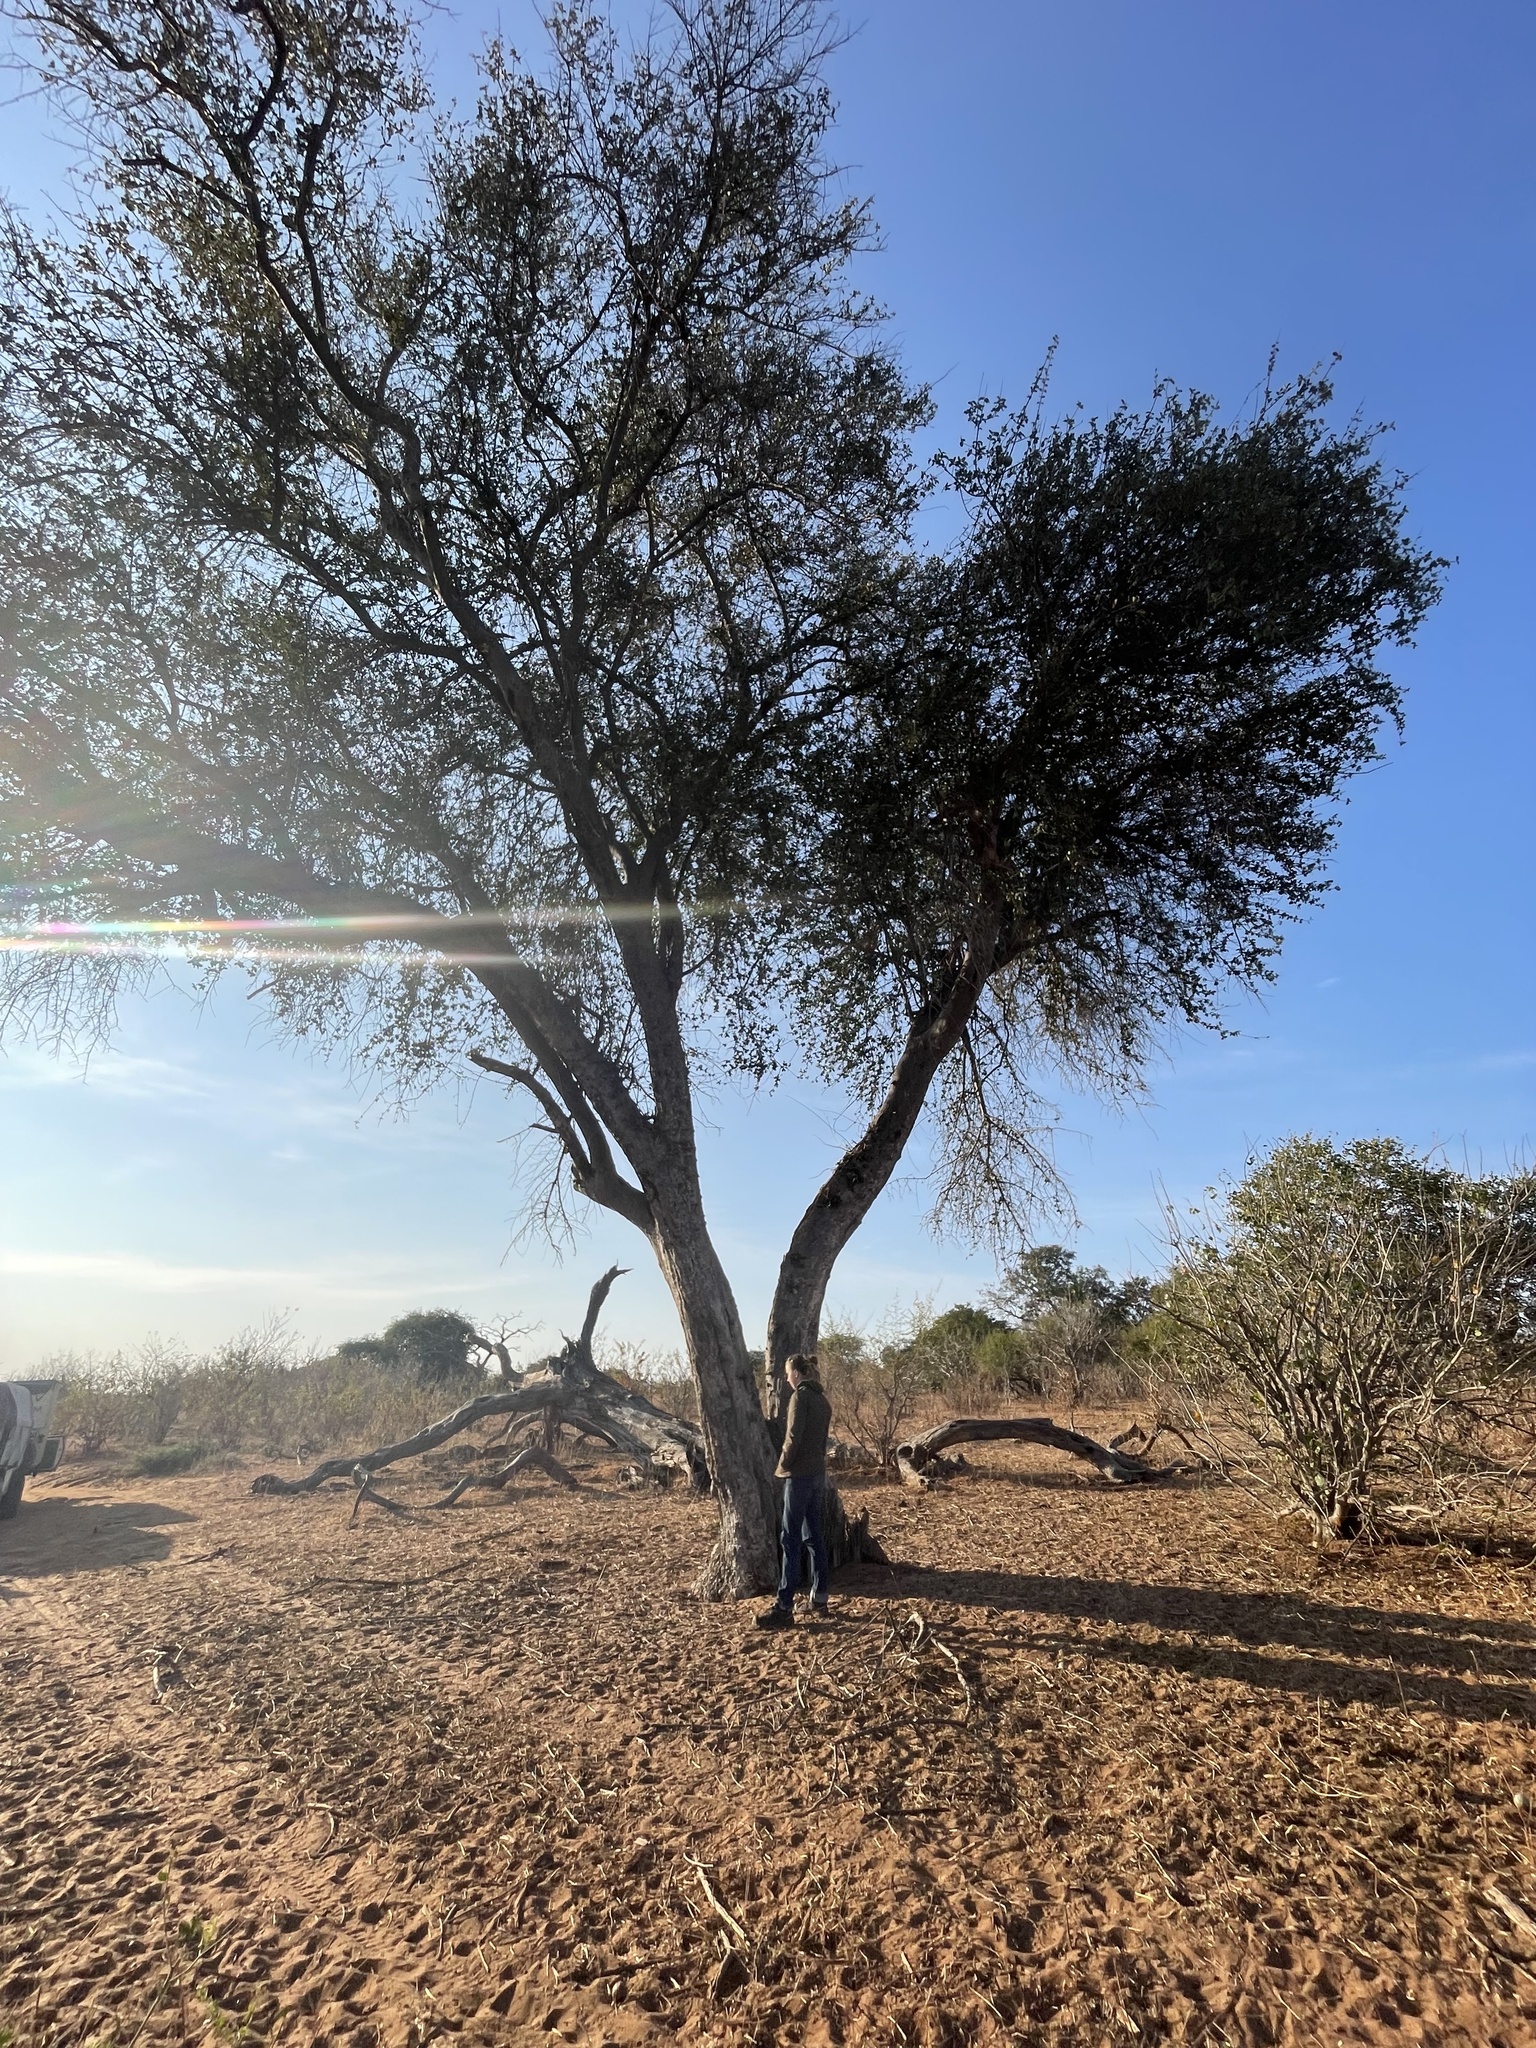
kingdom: Plantae
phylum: Tracheophyta
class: Magnoliopsida
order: Myrtales
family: Combretaceae
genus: Combretum
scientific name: Combretum imberbe
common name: Leadwood
